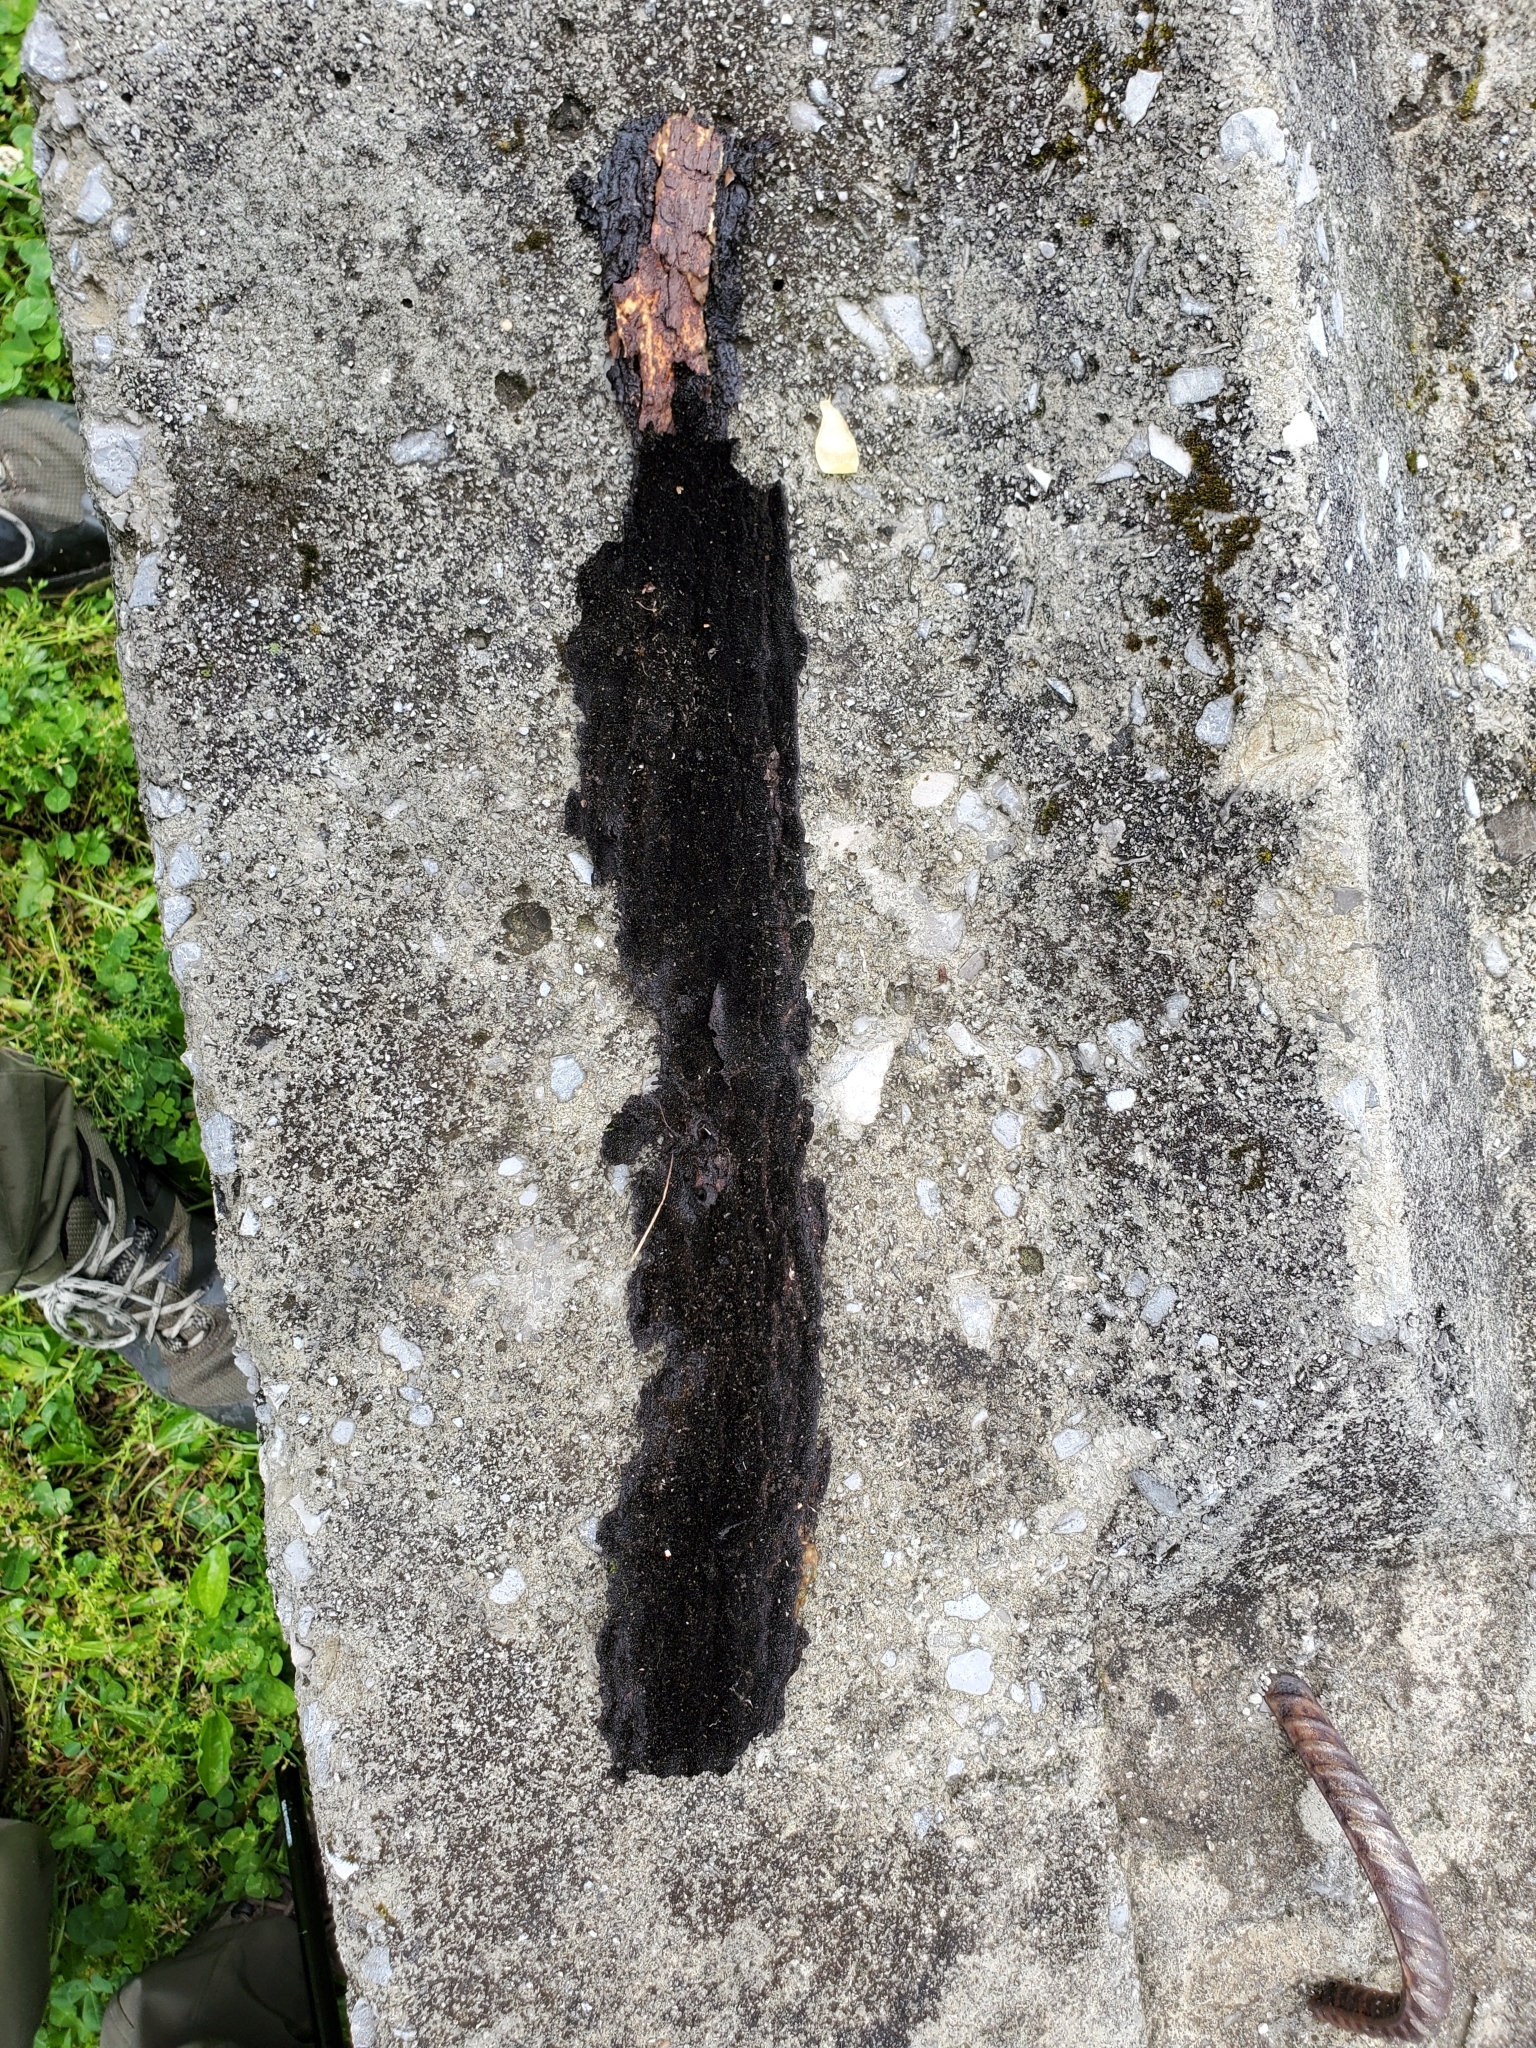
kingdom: Fungi
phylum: Basidiomycota
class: Agaricomycetes
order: Polyporales
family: Irpicaceae
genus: Irpex
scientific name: Irpex lacteus
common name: Milk-white toothed polypore
